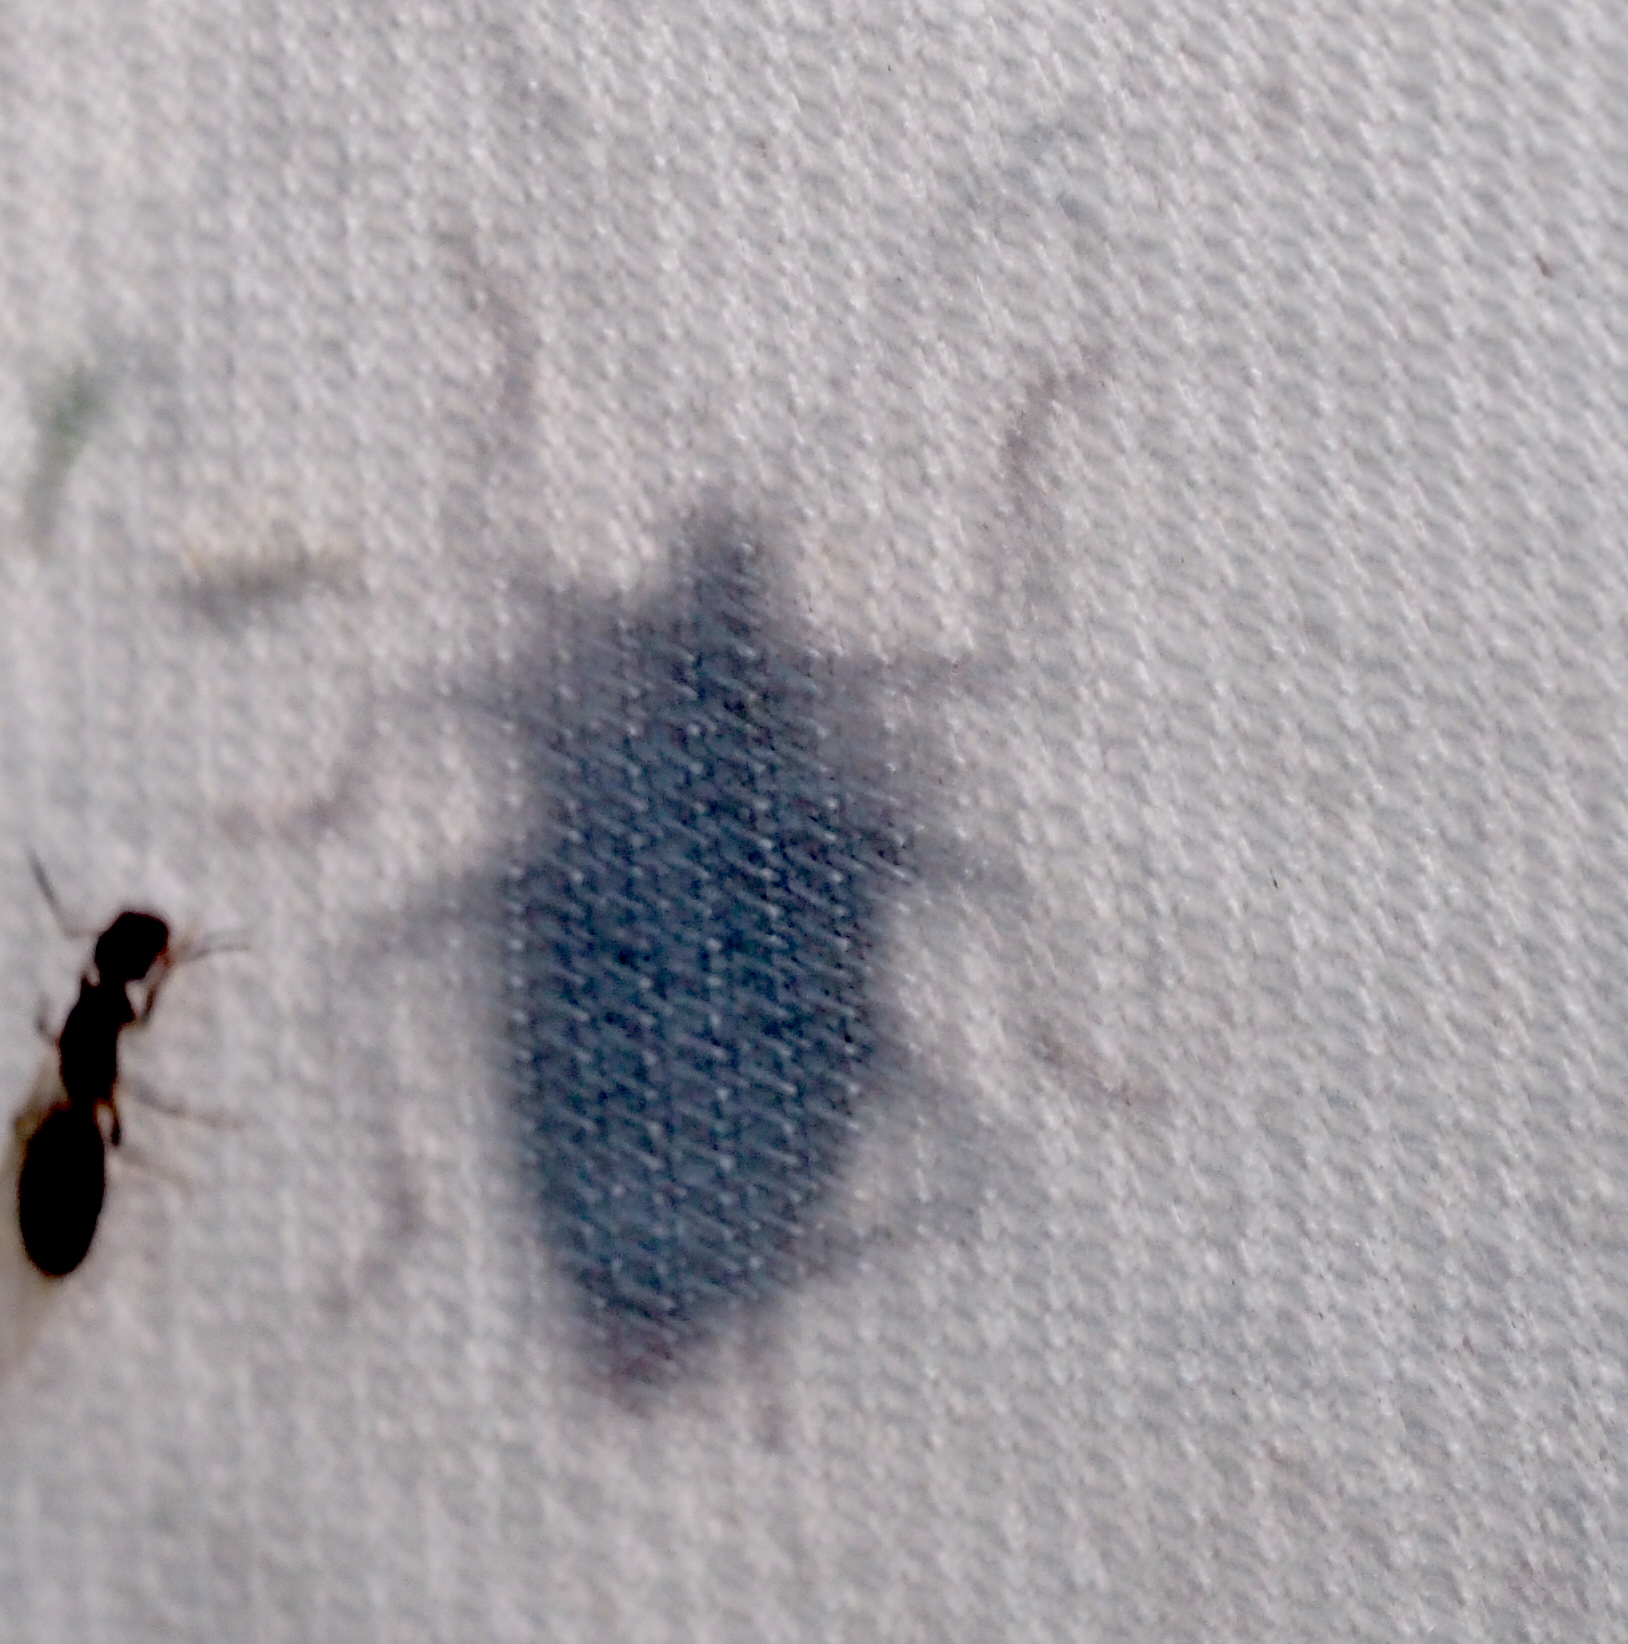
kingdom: Animalia
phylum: Arthropoda
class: Insecta
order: Hemiptera
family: Pentatomidae
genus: Pentatoma
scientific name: Pentatoma rufipes
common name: Forest bug
